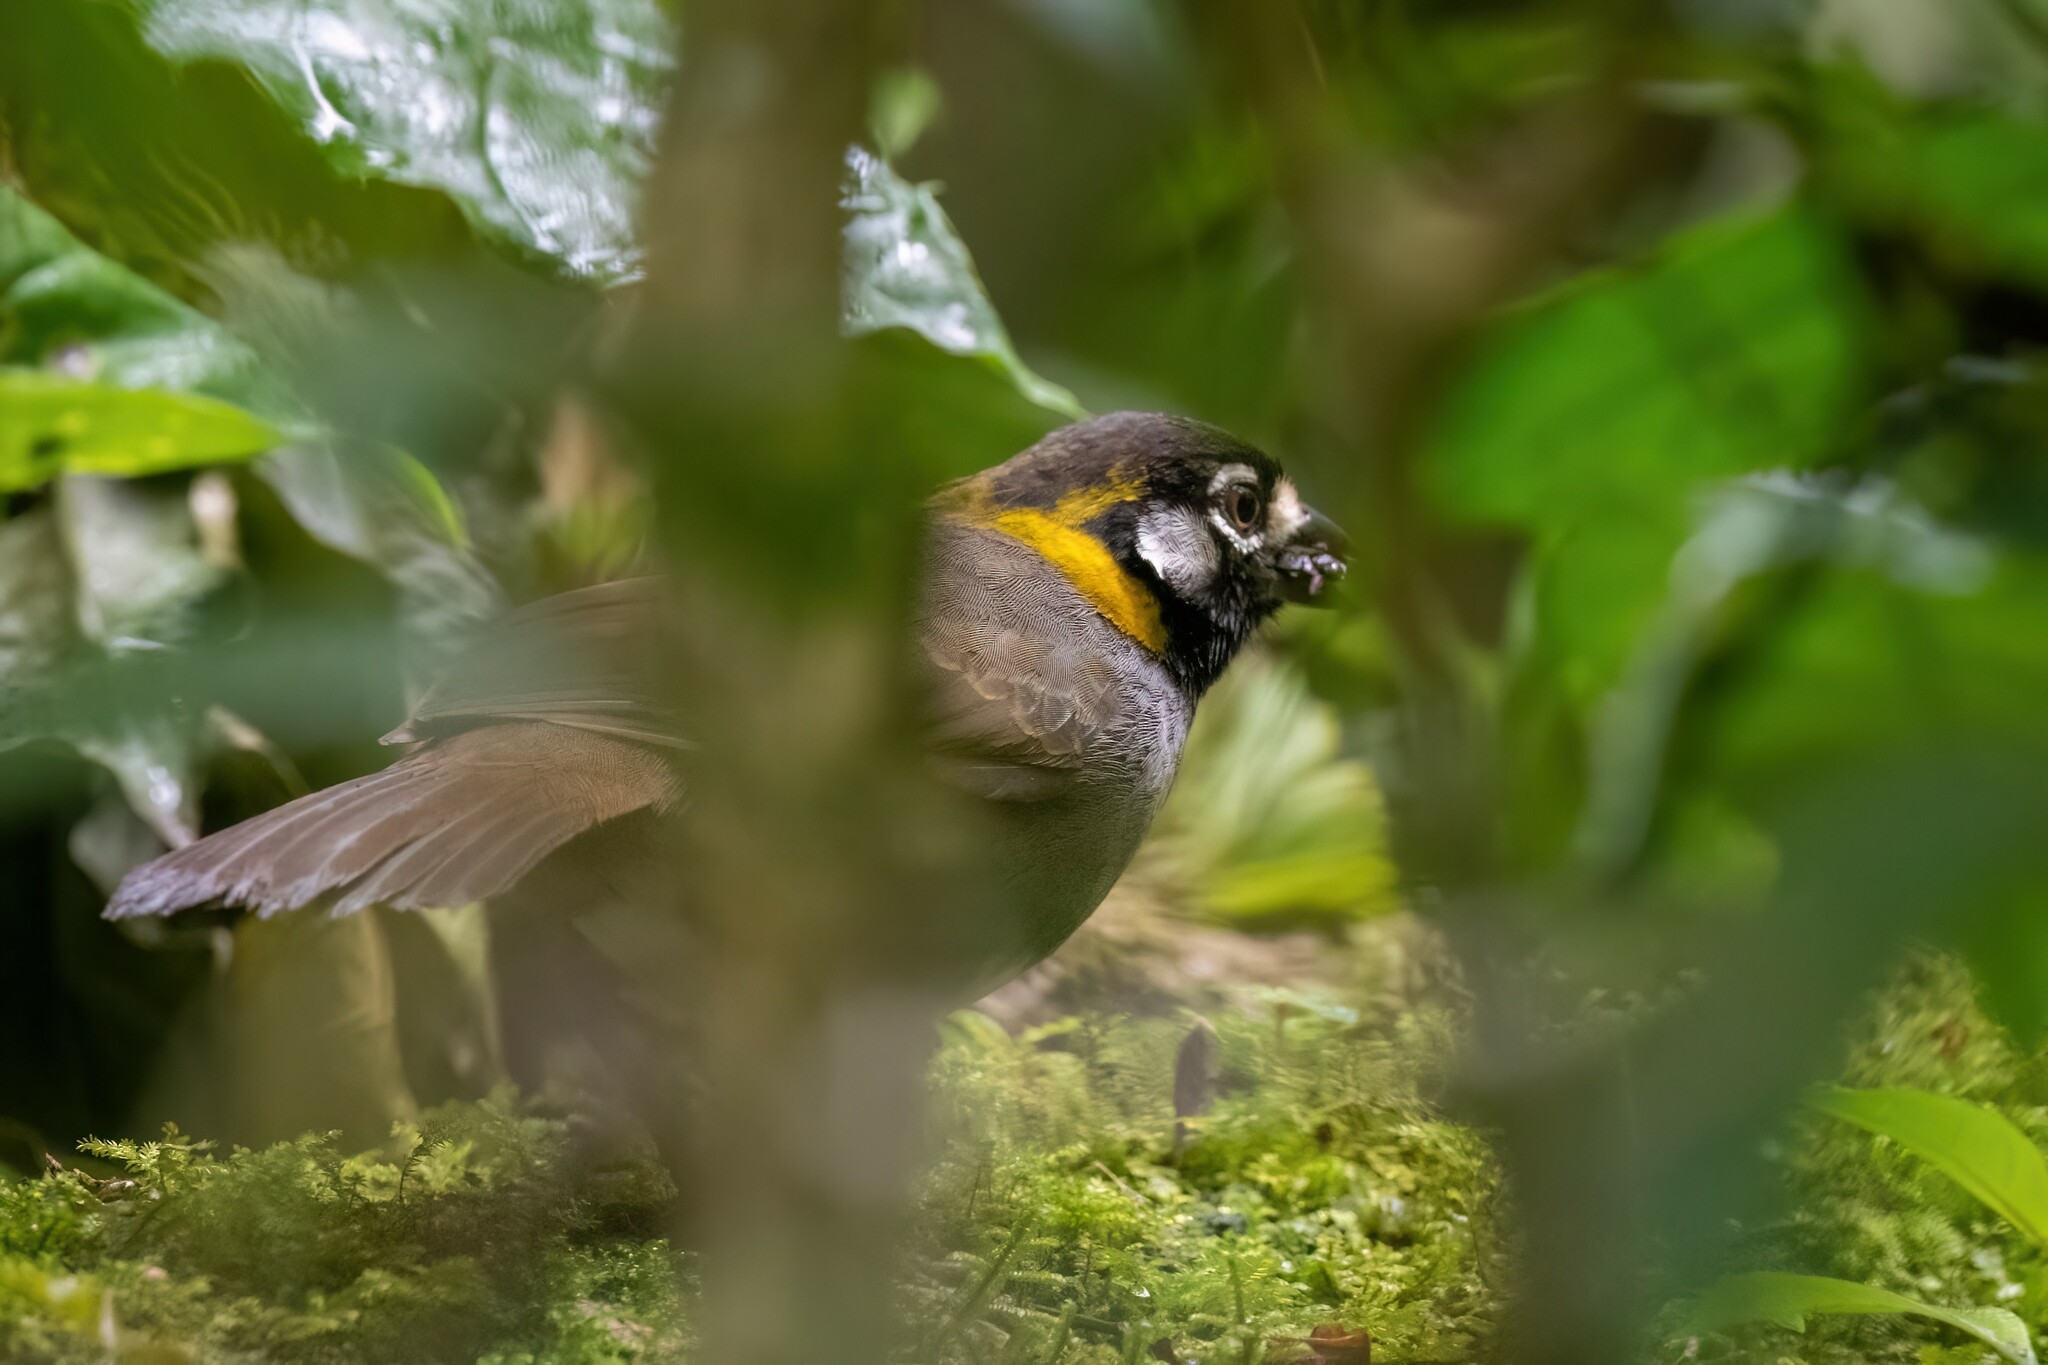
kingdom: Animalia
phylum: Chordata
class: Aves
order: Passeriformes
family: Passerellidae
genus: Melozone
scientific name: Melozone leucotis
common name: White-eared ground-sparrow
